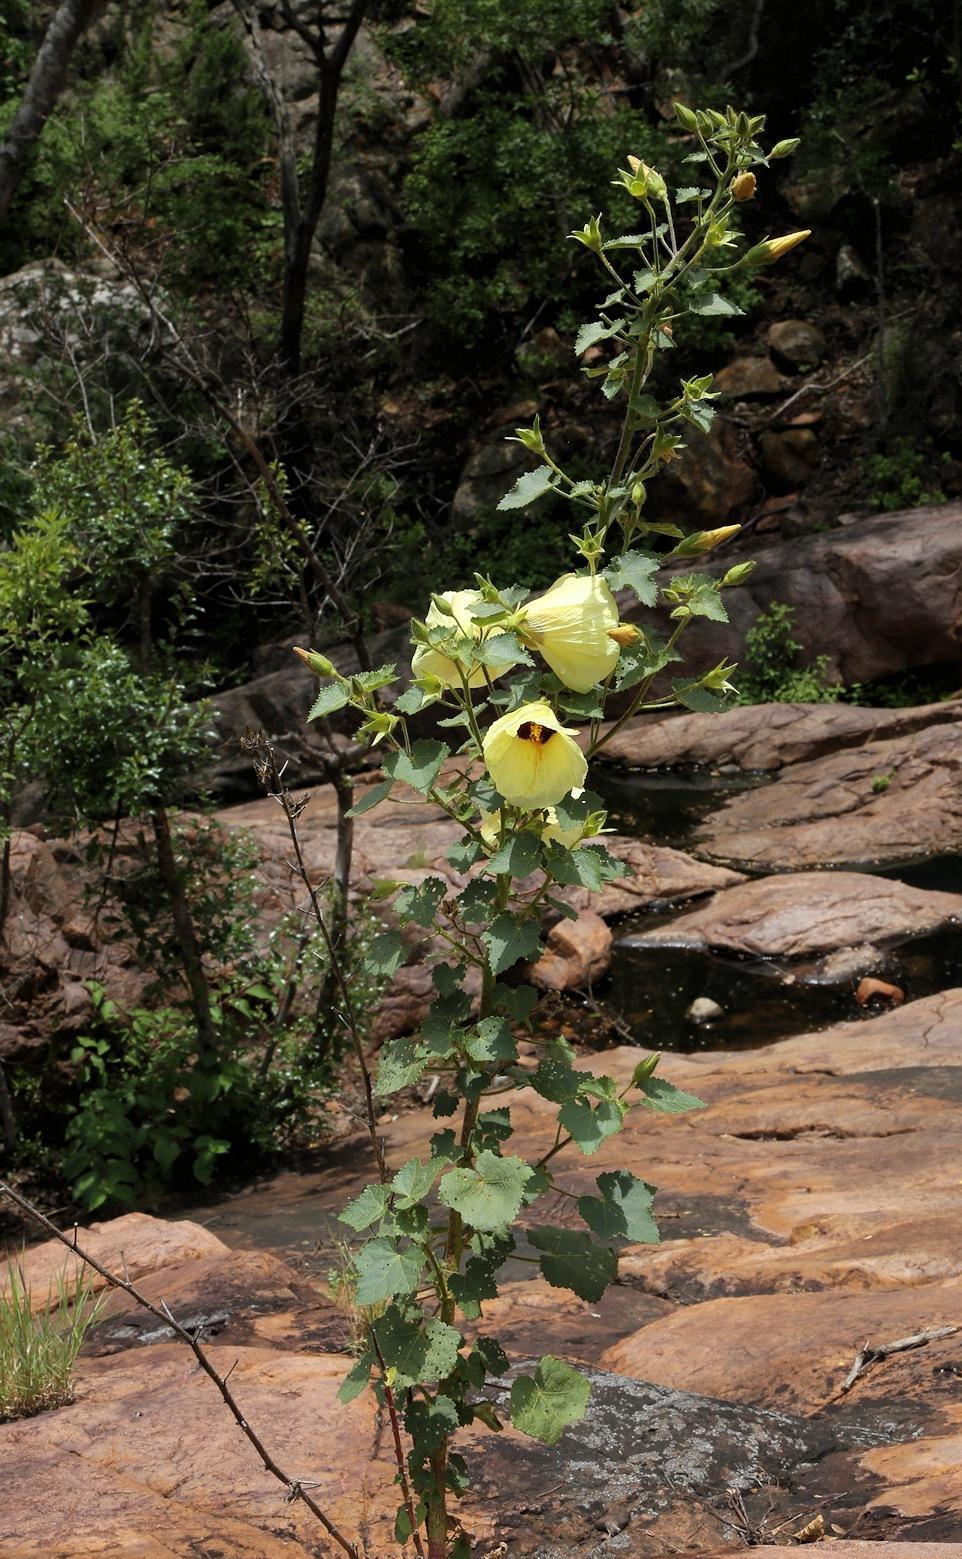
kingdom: Plantae
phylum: Tracheophyta
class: Magnoliopsida
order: Malvales
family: Malvaceae
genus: Hibiscus
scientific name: Hibiscus engleri
